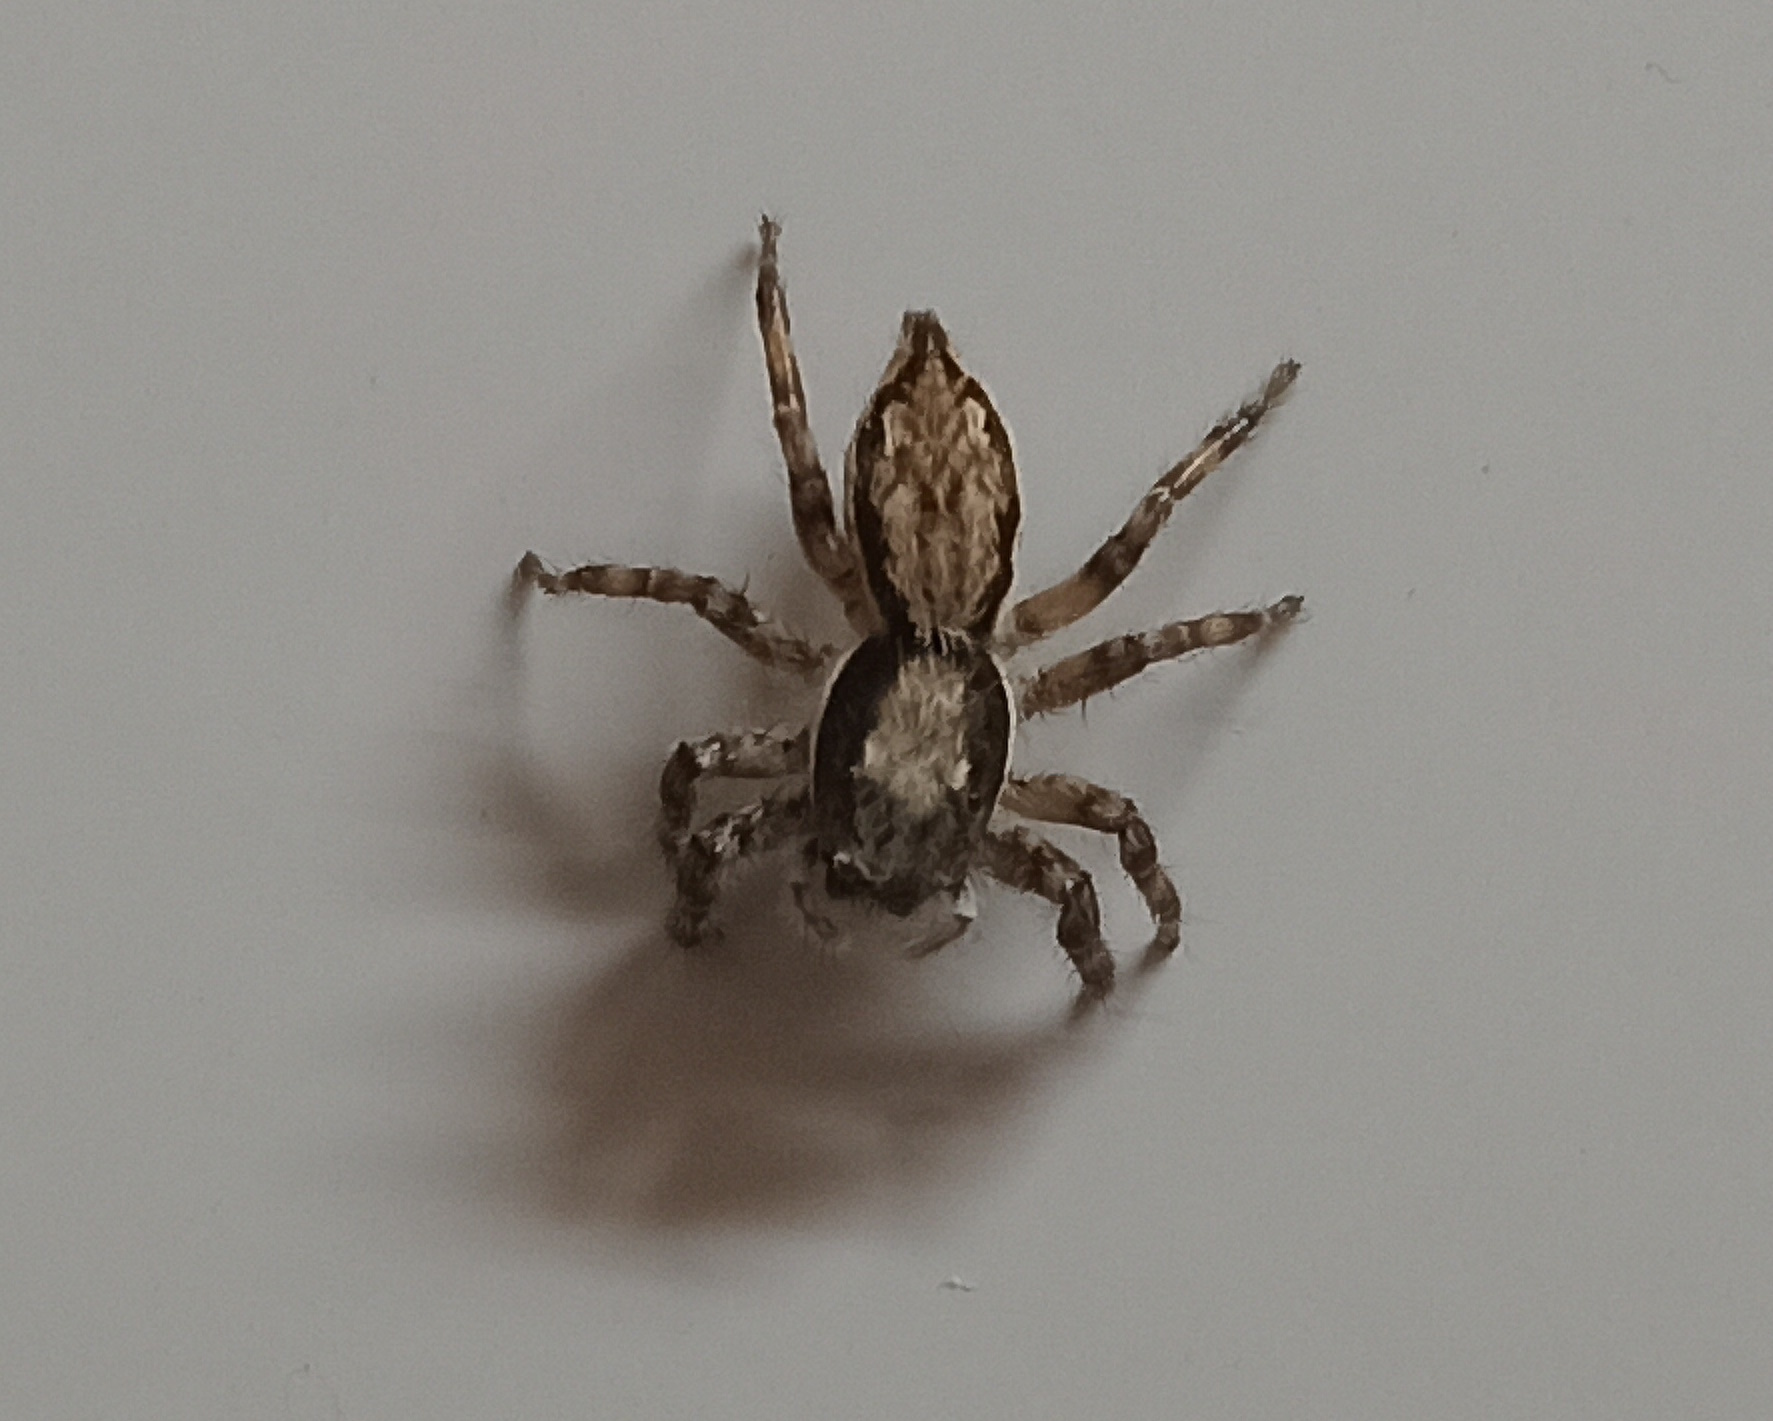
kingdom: Animalia
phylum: Arthropoda
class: Arachnida
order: Araneae
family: Salticidae
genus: Menemerus
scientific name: Menemerus bivittatus
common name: Gray wall jumper
